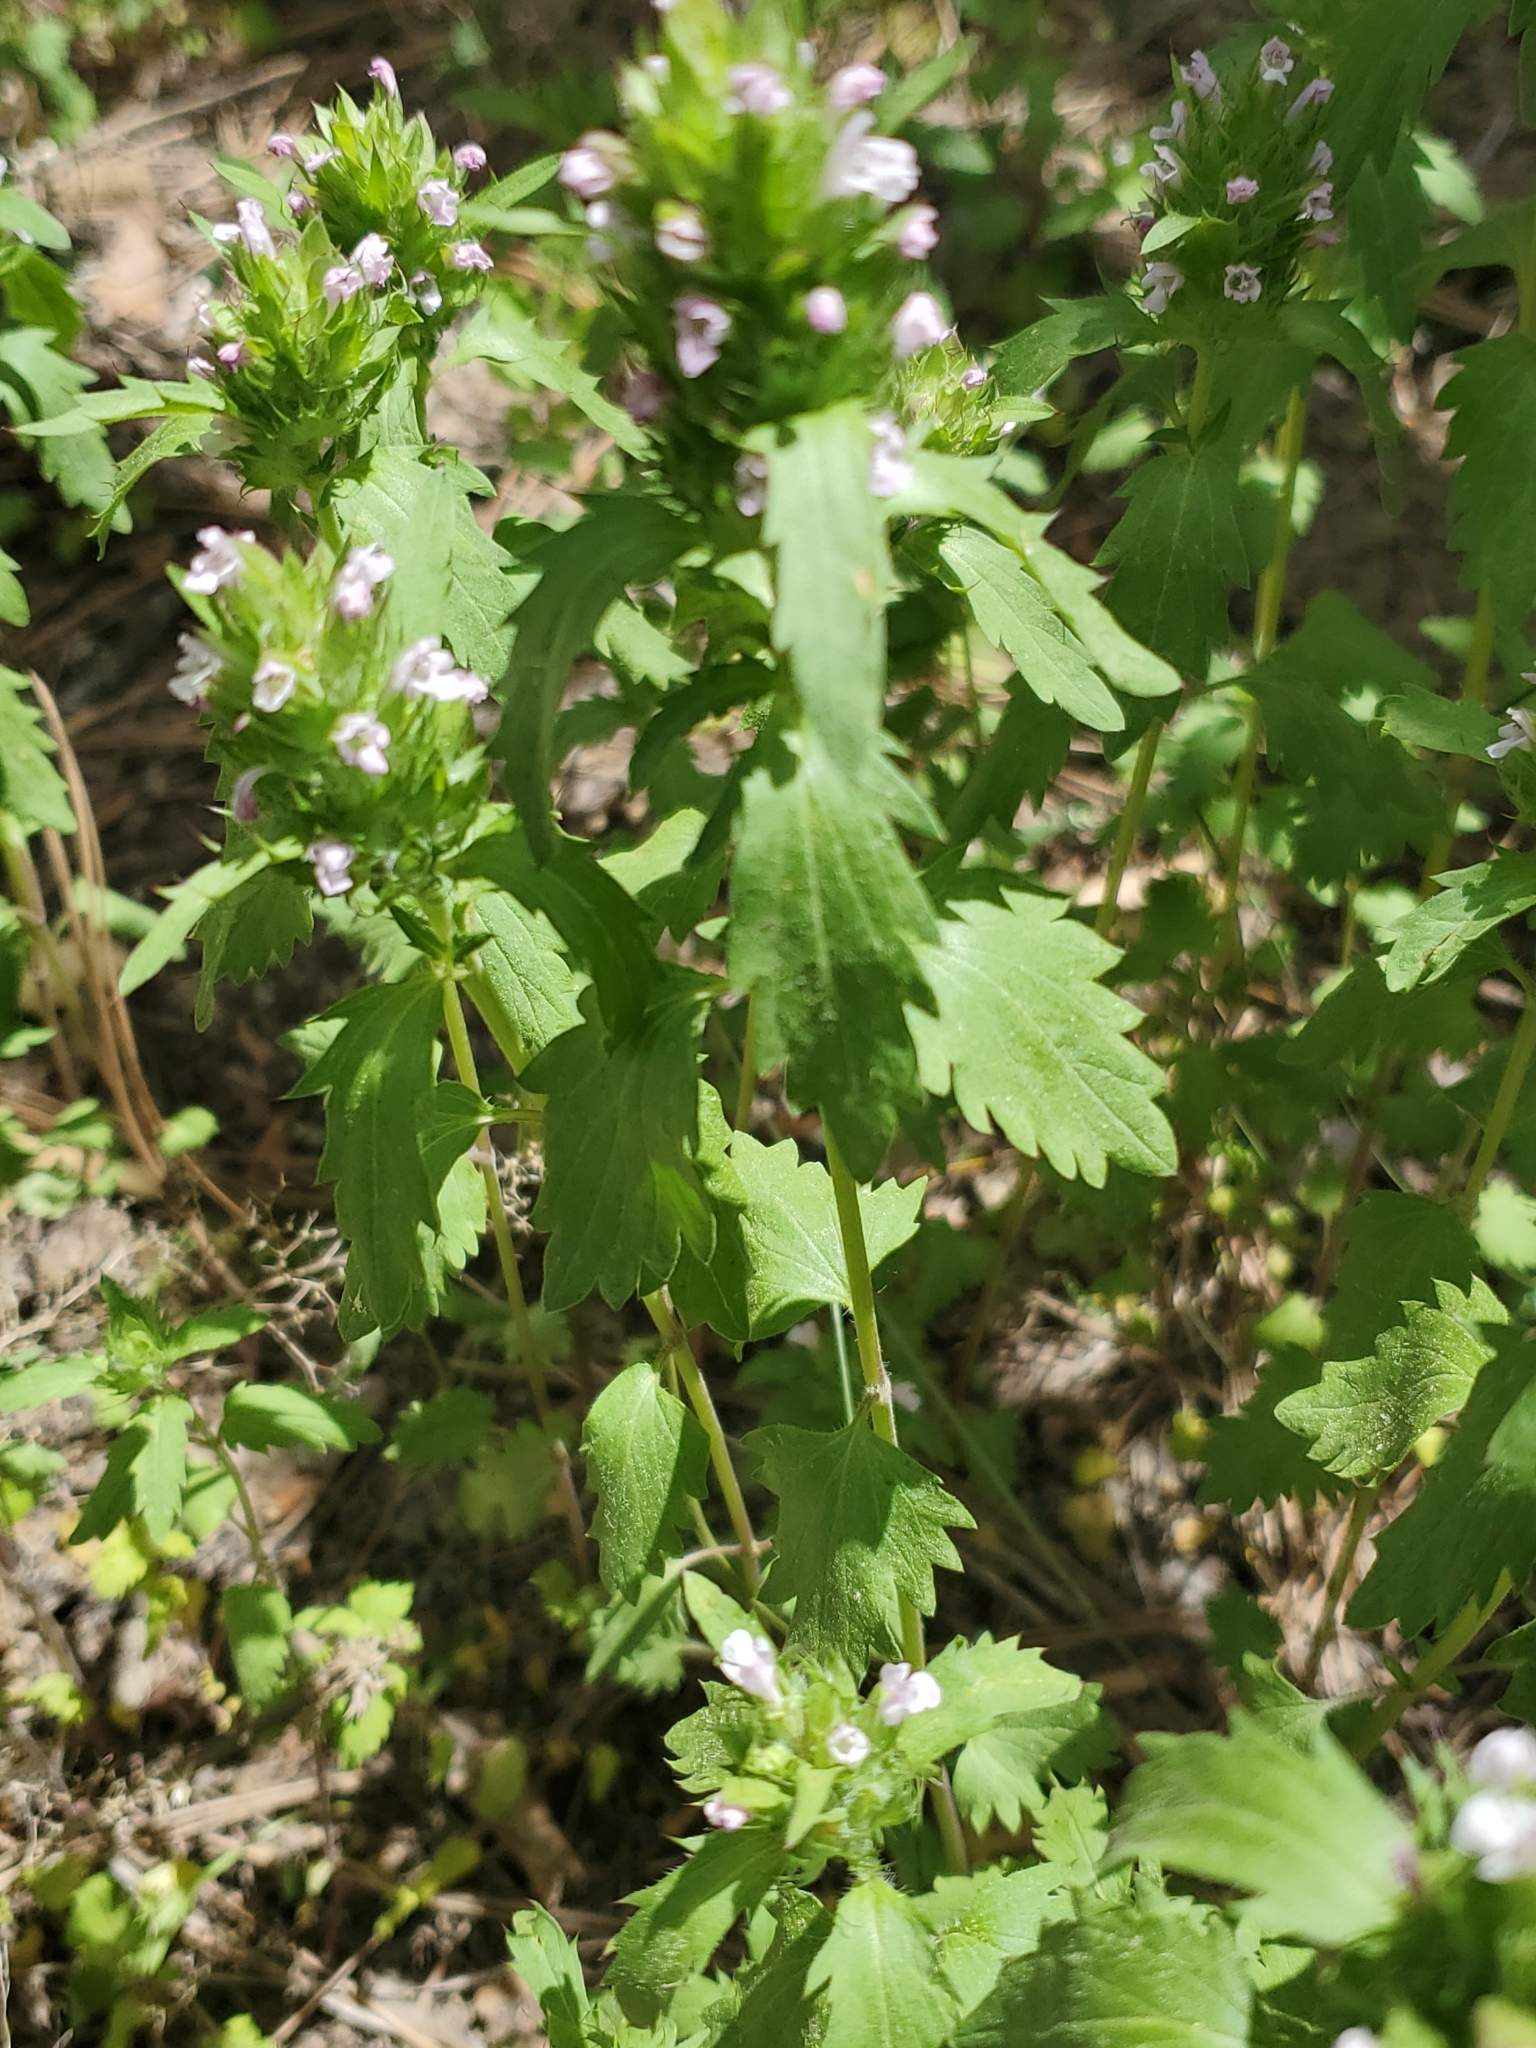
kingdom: Plantae
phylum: Tracheophyta
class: Magnoliopsida
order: Lamiales
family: Lamiaceae
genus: Dracocephalum
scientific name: Dracocephalum parviflorum
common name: American dragonhead
